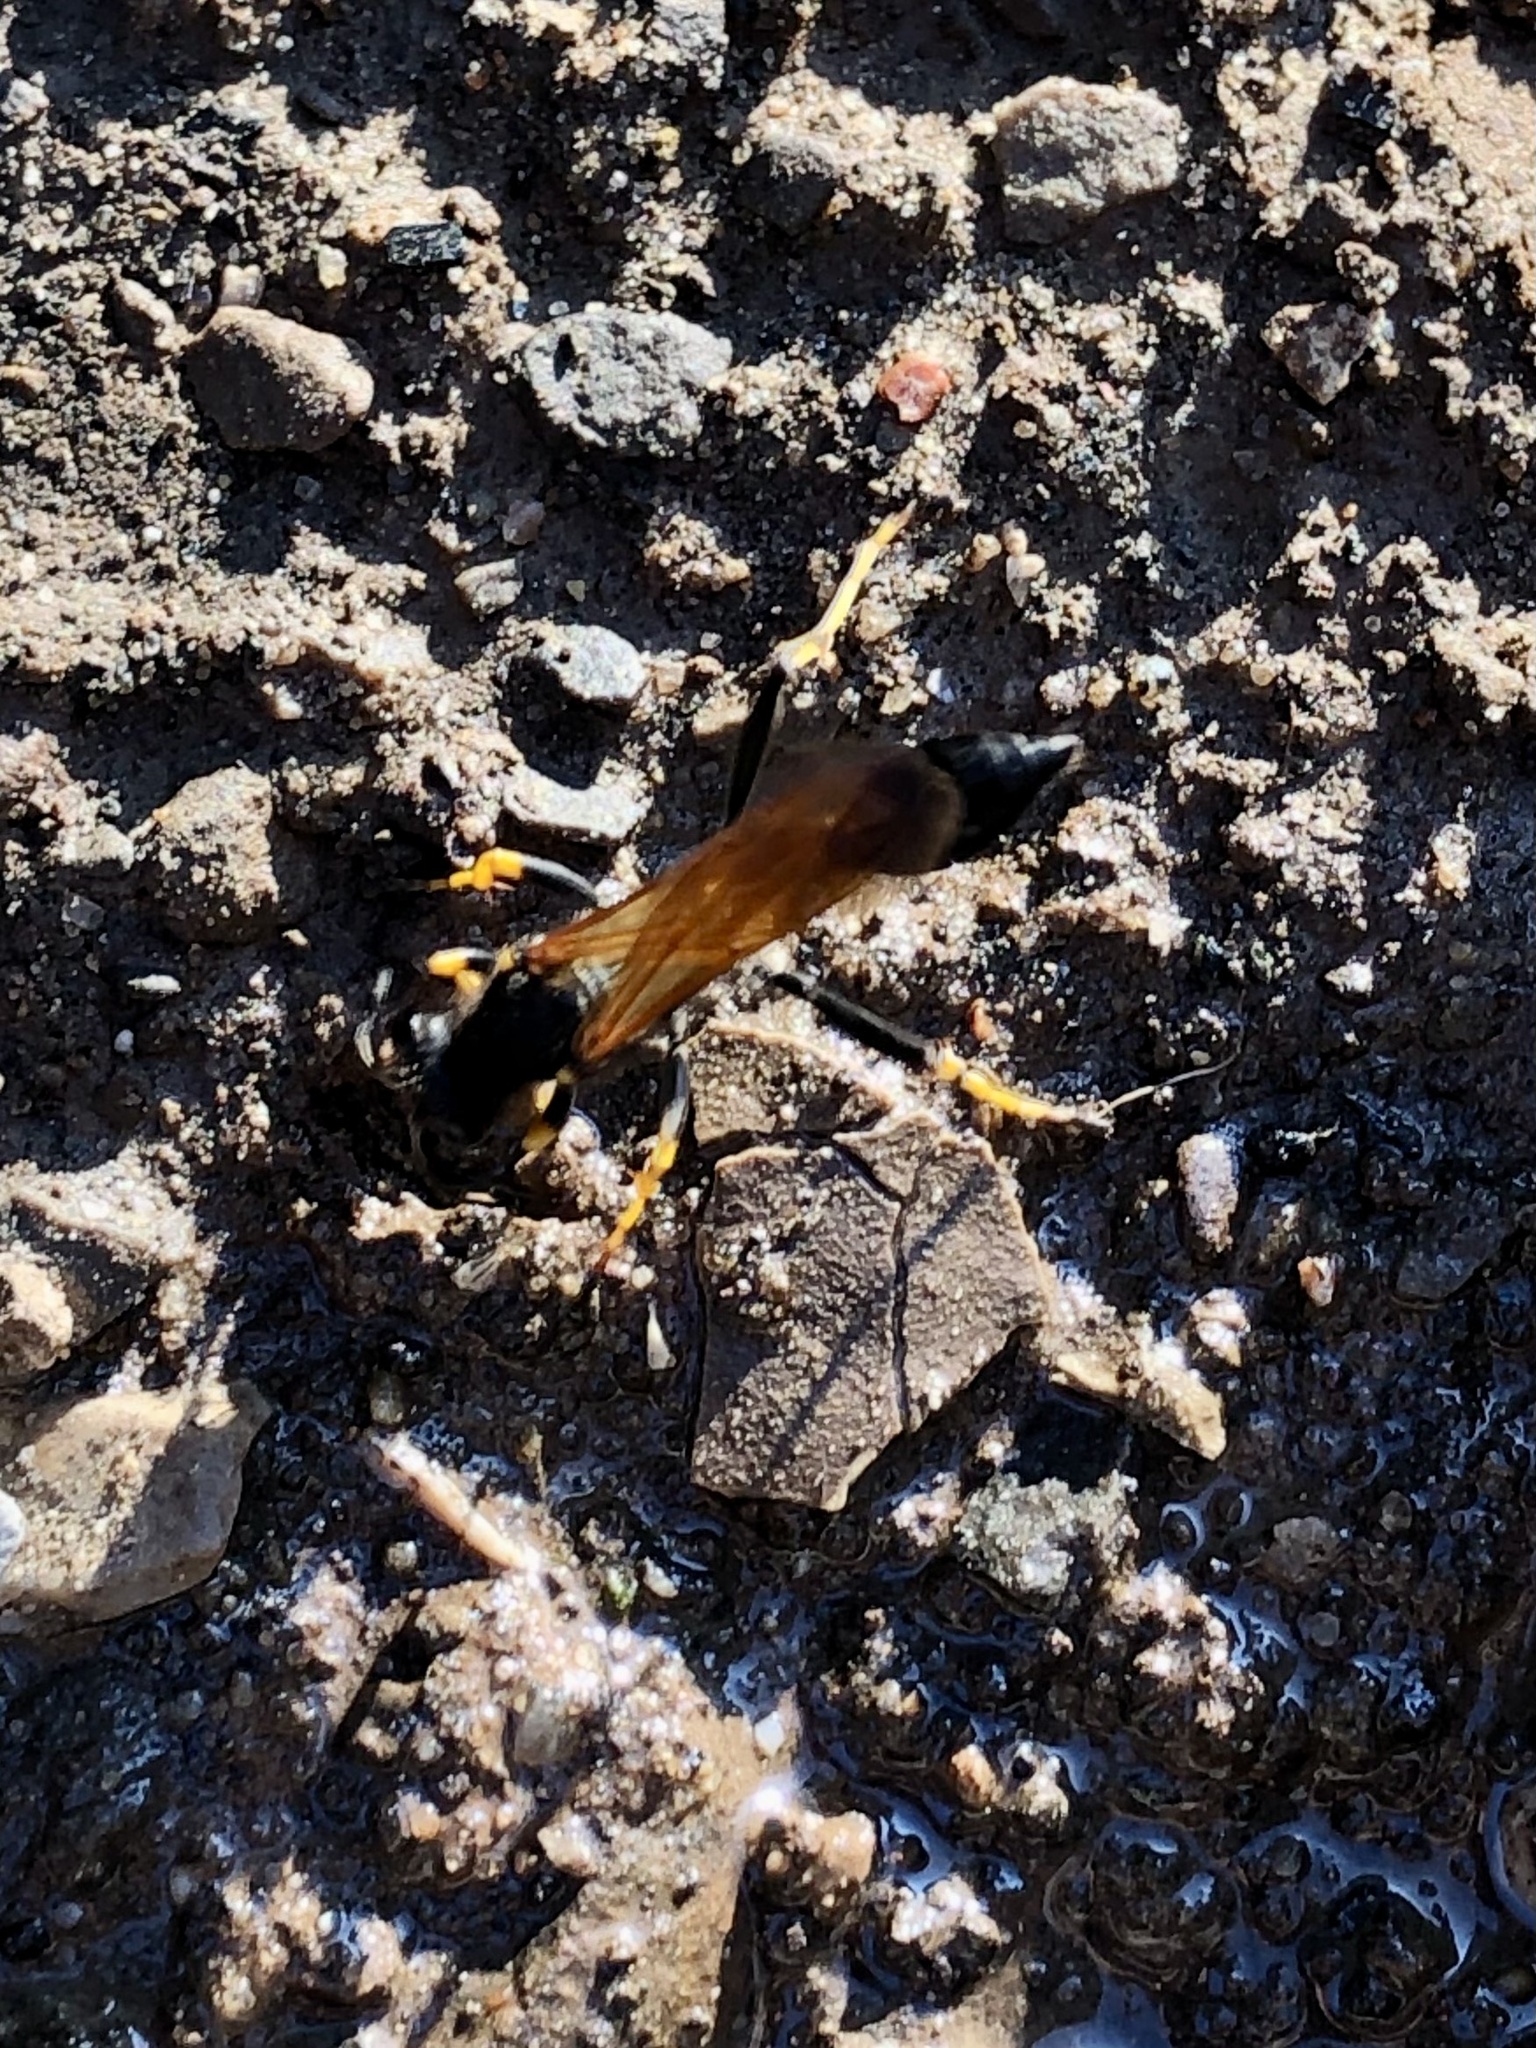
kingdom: Animalia
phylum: Arthropoda
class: Insecta
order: Hymenoptera
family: Sphecidae
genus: Sceliphron
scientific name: Sceliphron caementarium
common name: Mud dauber
